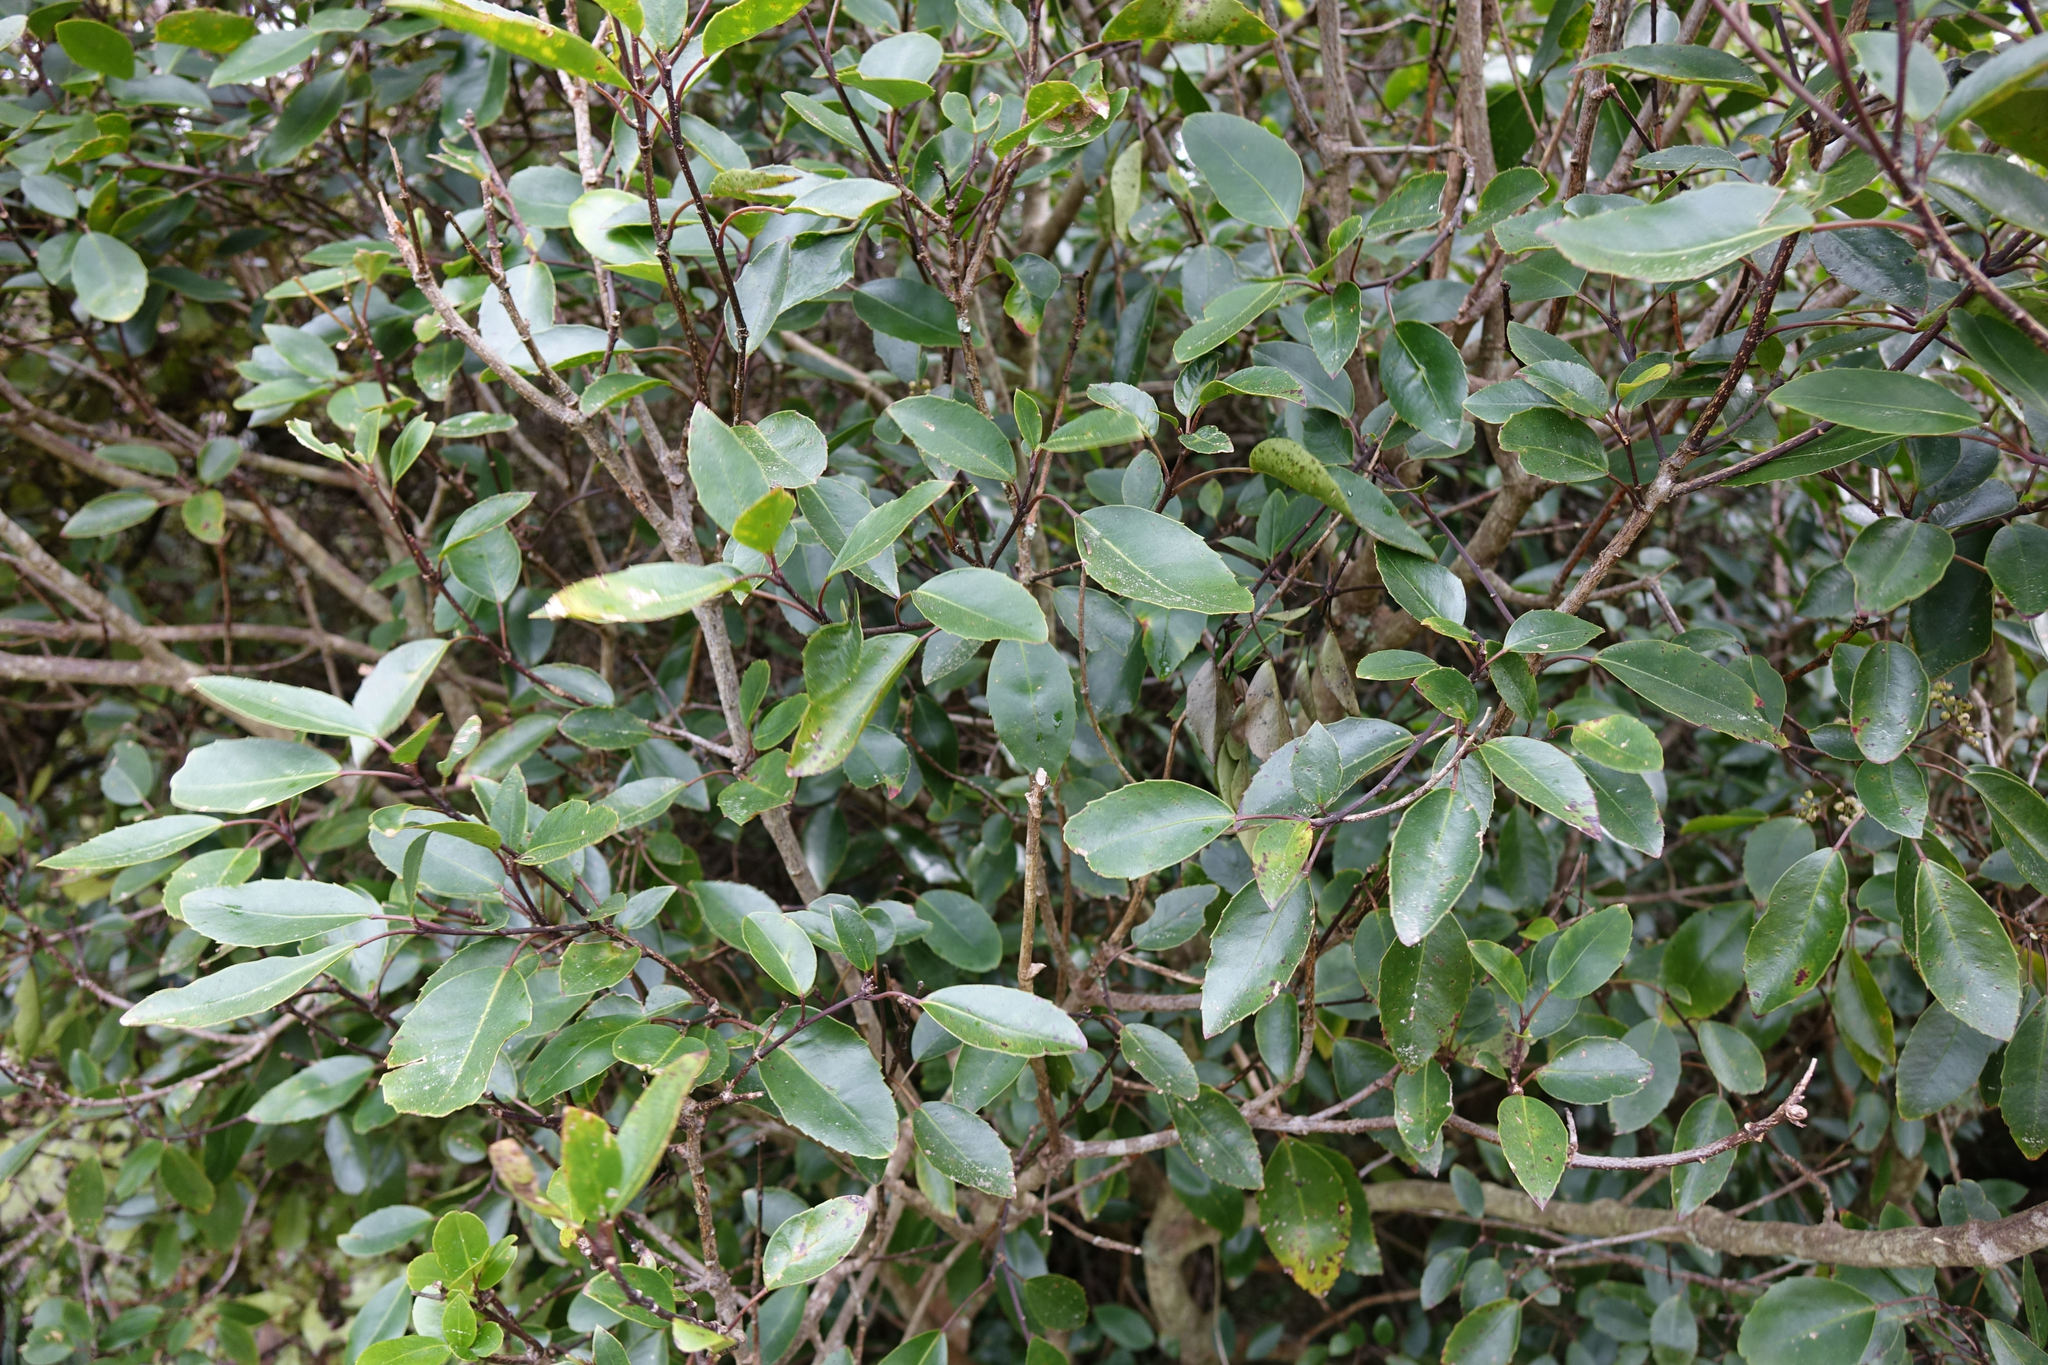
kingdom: Plantae
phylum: Tracheophyta
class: Magnoliopsida
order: Apiales
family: Araliaceae
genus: Raukaua
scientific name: Raukaua simplex
